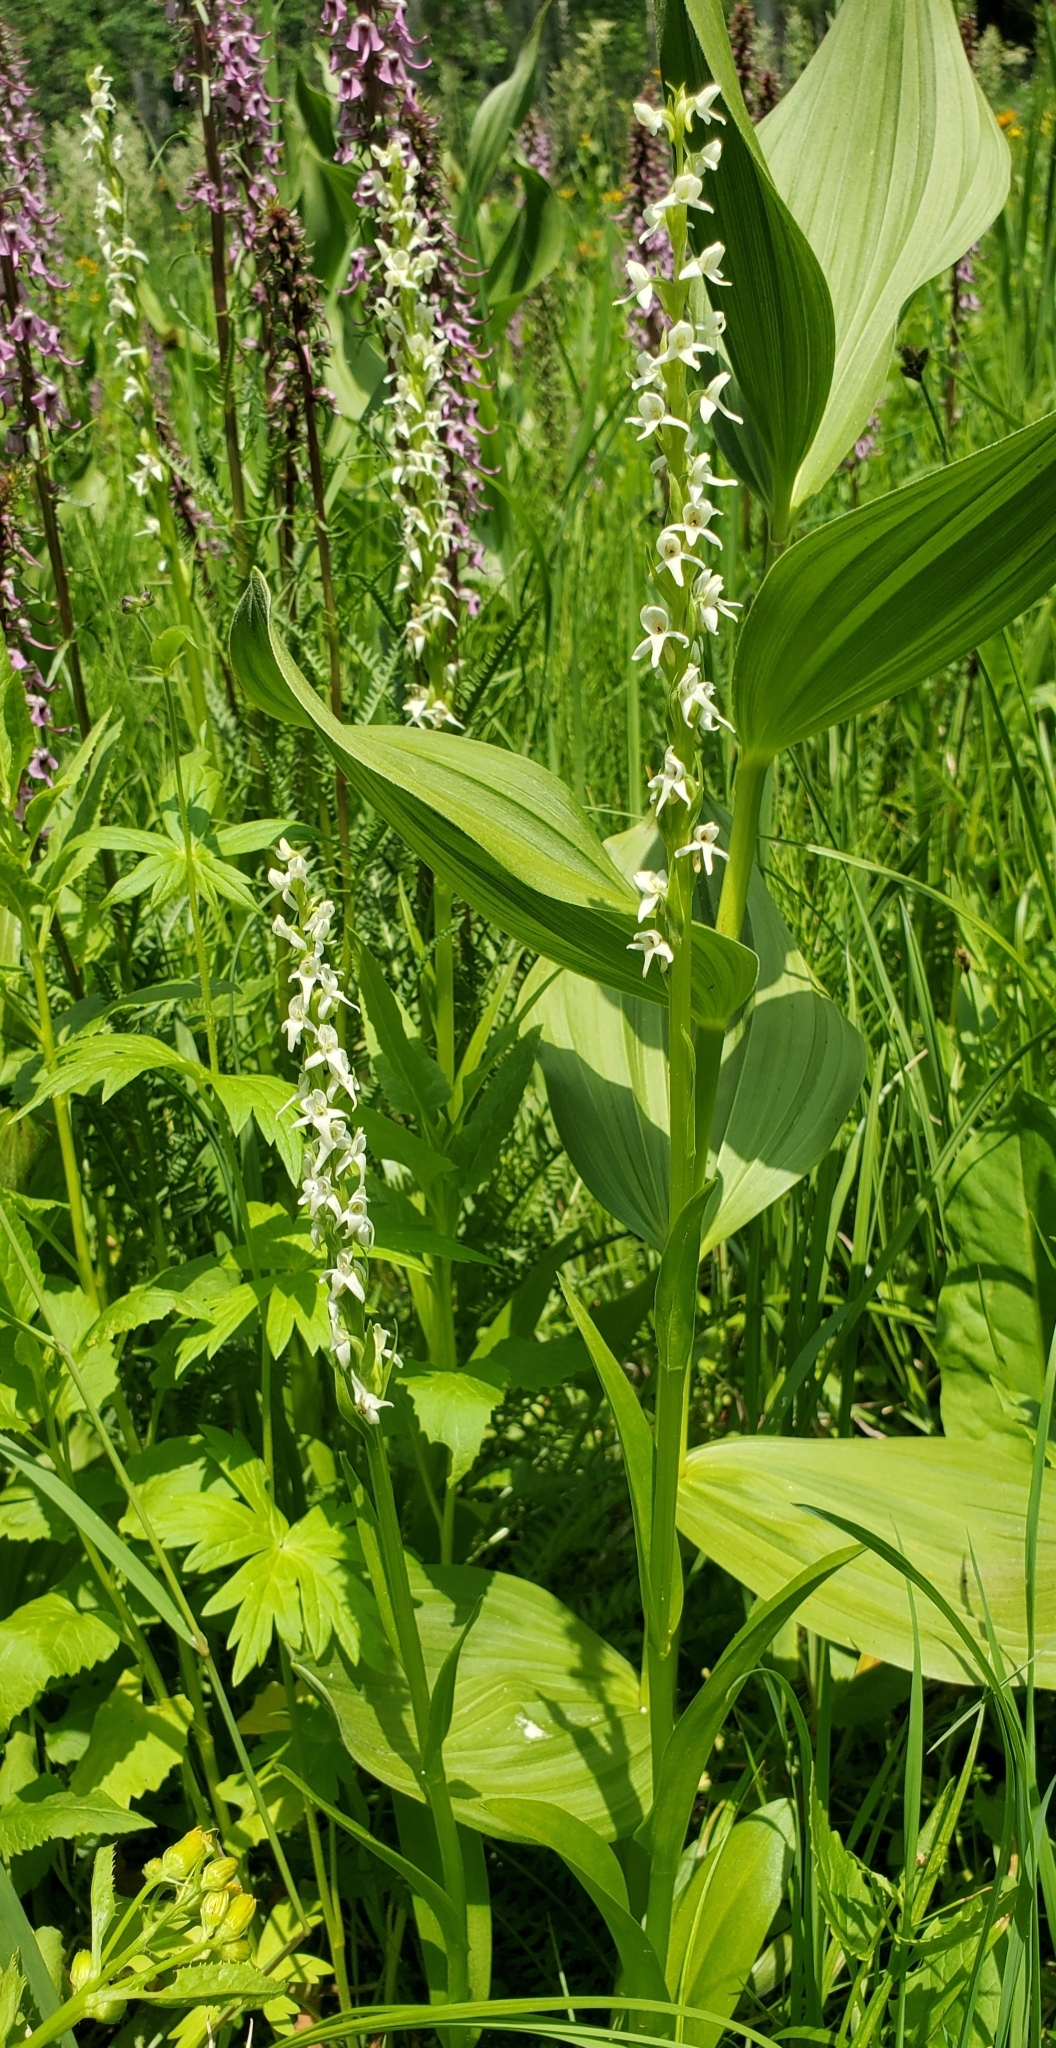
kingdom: Plantae
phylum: Tracheophyta
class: Liliopsida
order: Asparagales
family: Orchidaceae
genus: Platanthera
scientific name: Platanthera dilatata
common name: Bog candles
